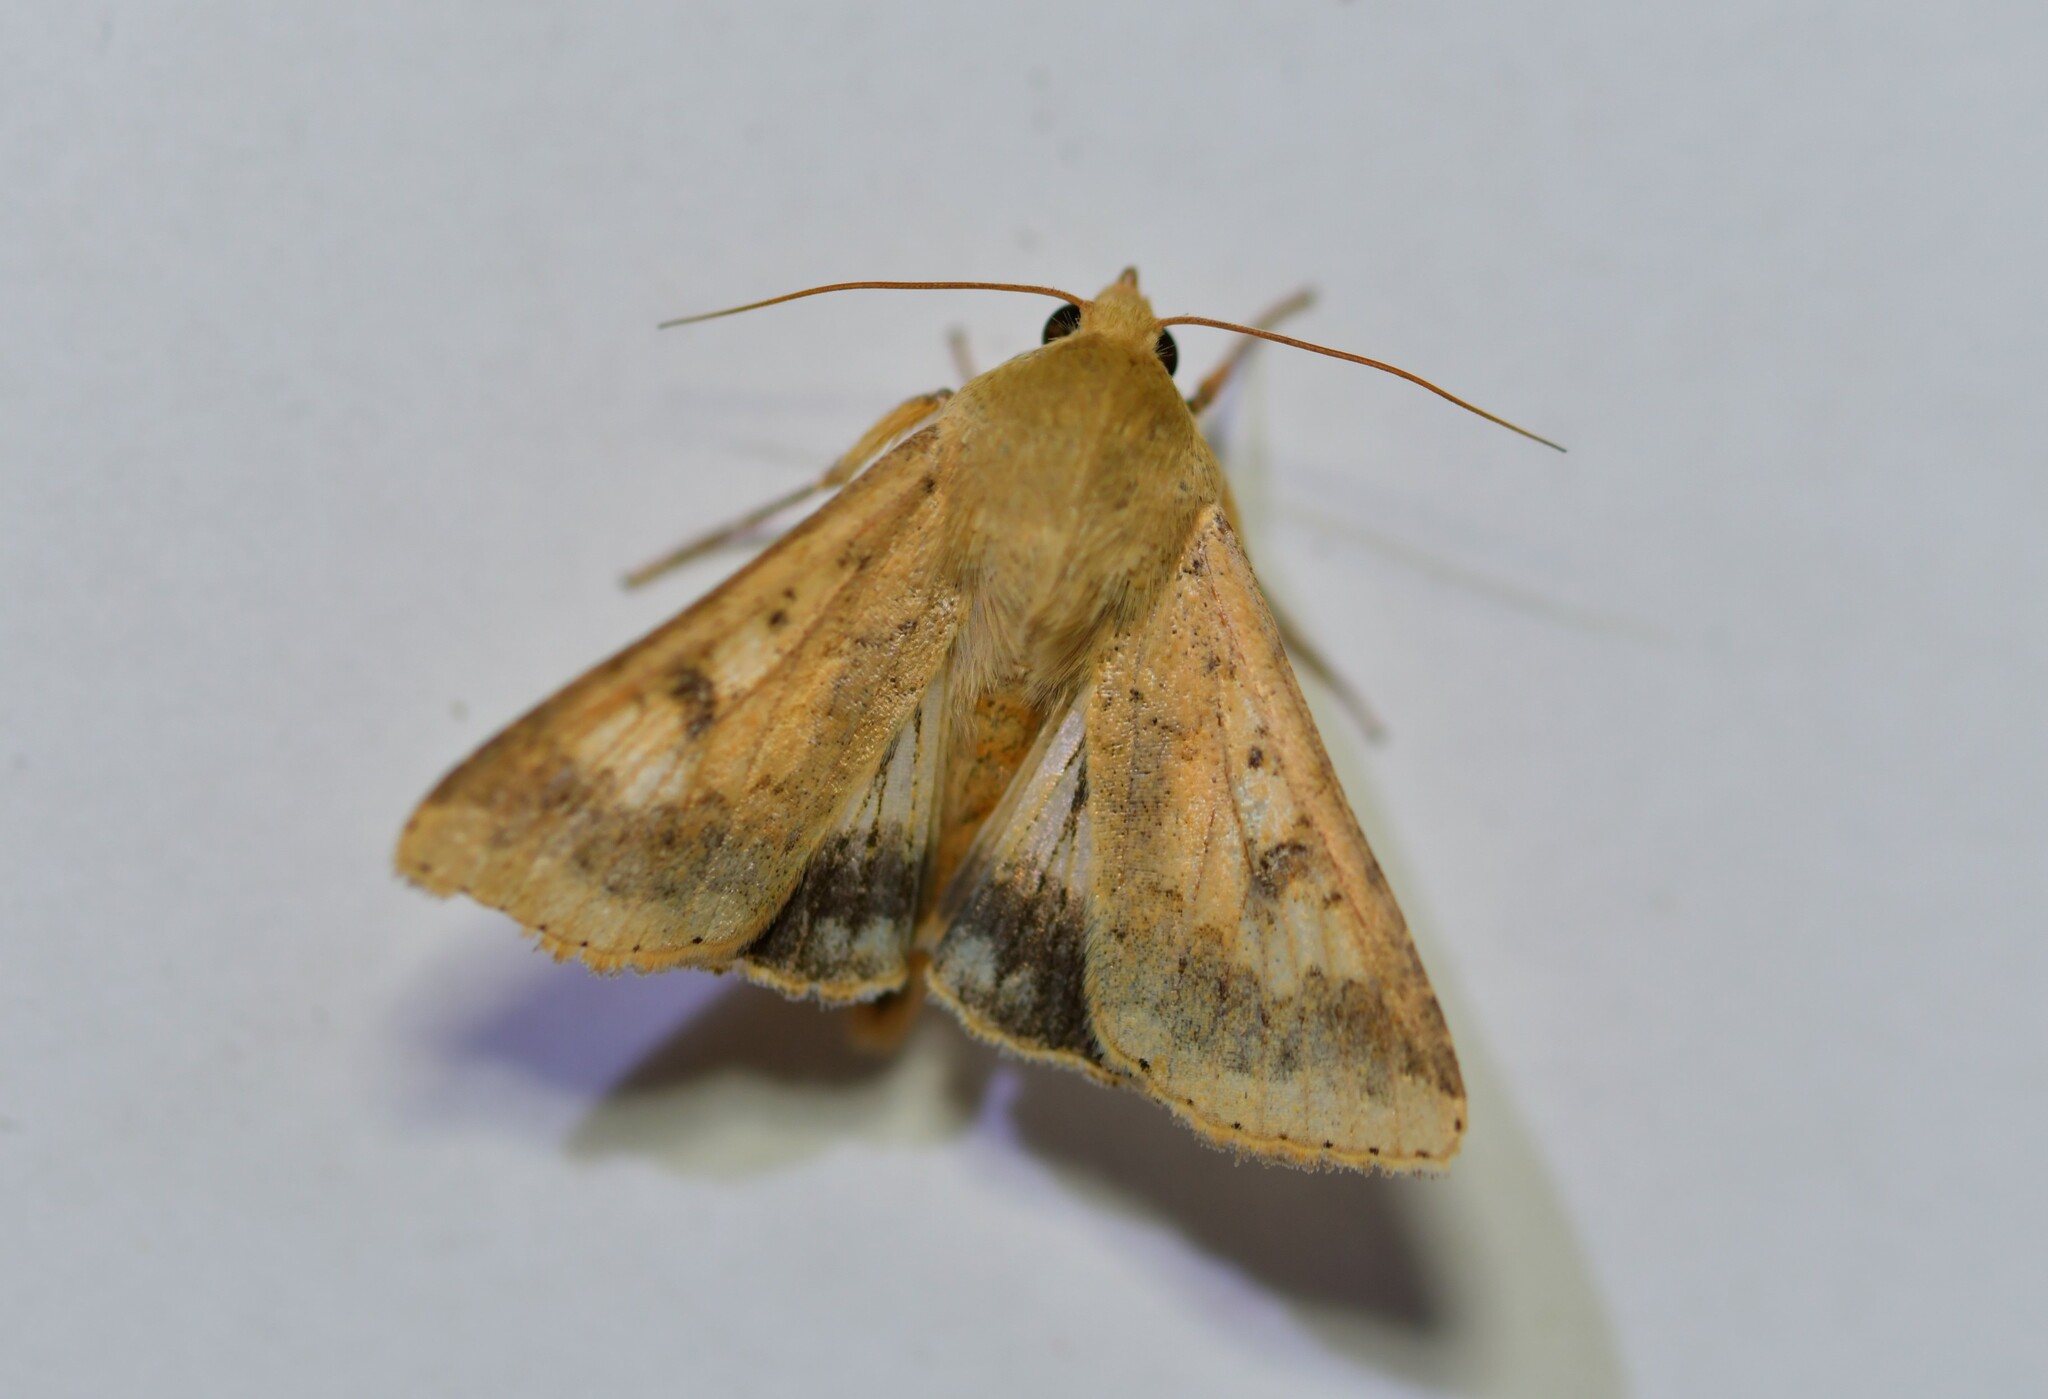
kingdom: Animalia
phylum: Arthropoda
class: Insecta
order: Lepidoptera
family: Noctuidae
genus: Helicoverpa
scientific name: Helicoverpa armigera
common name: Cotton bollworm
